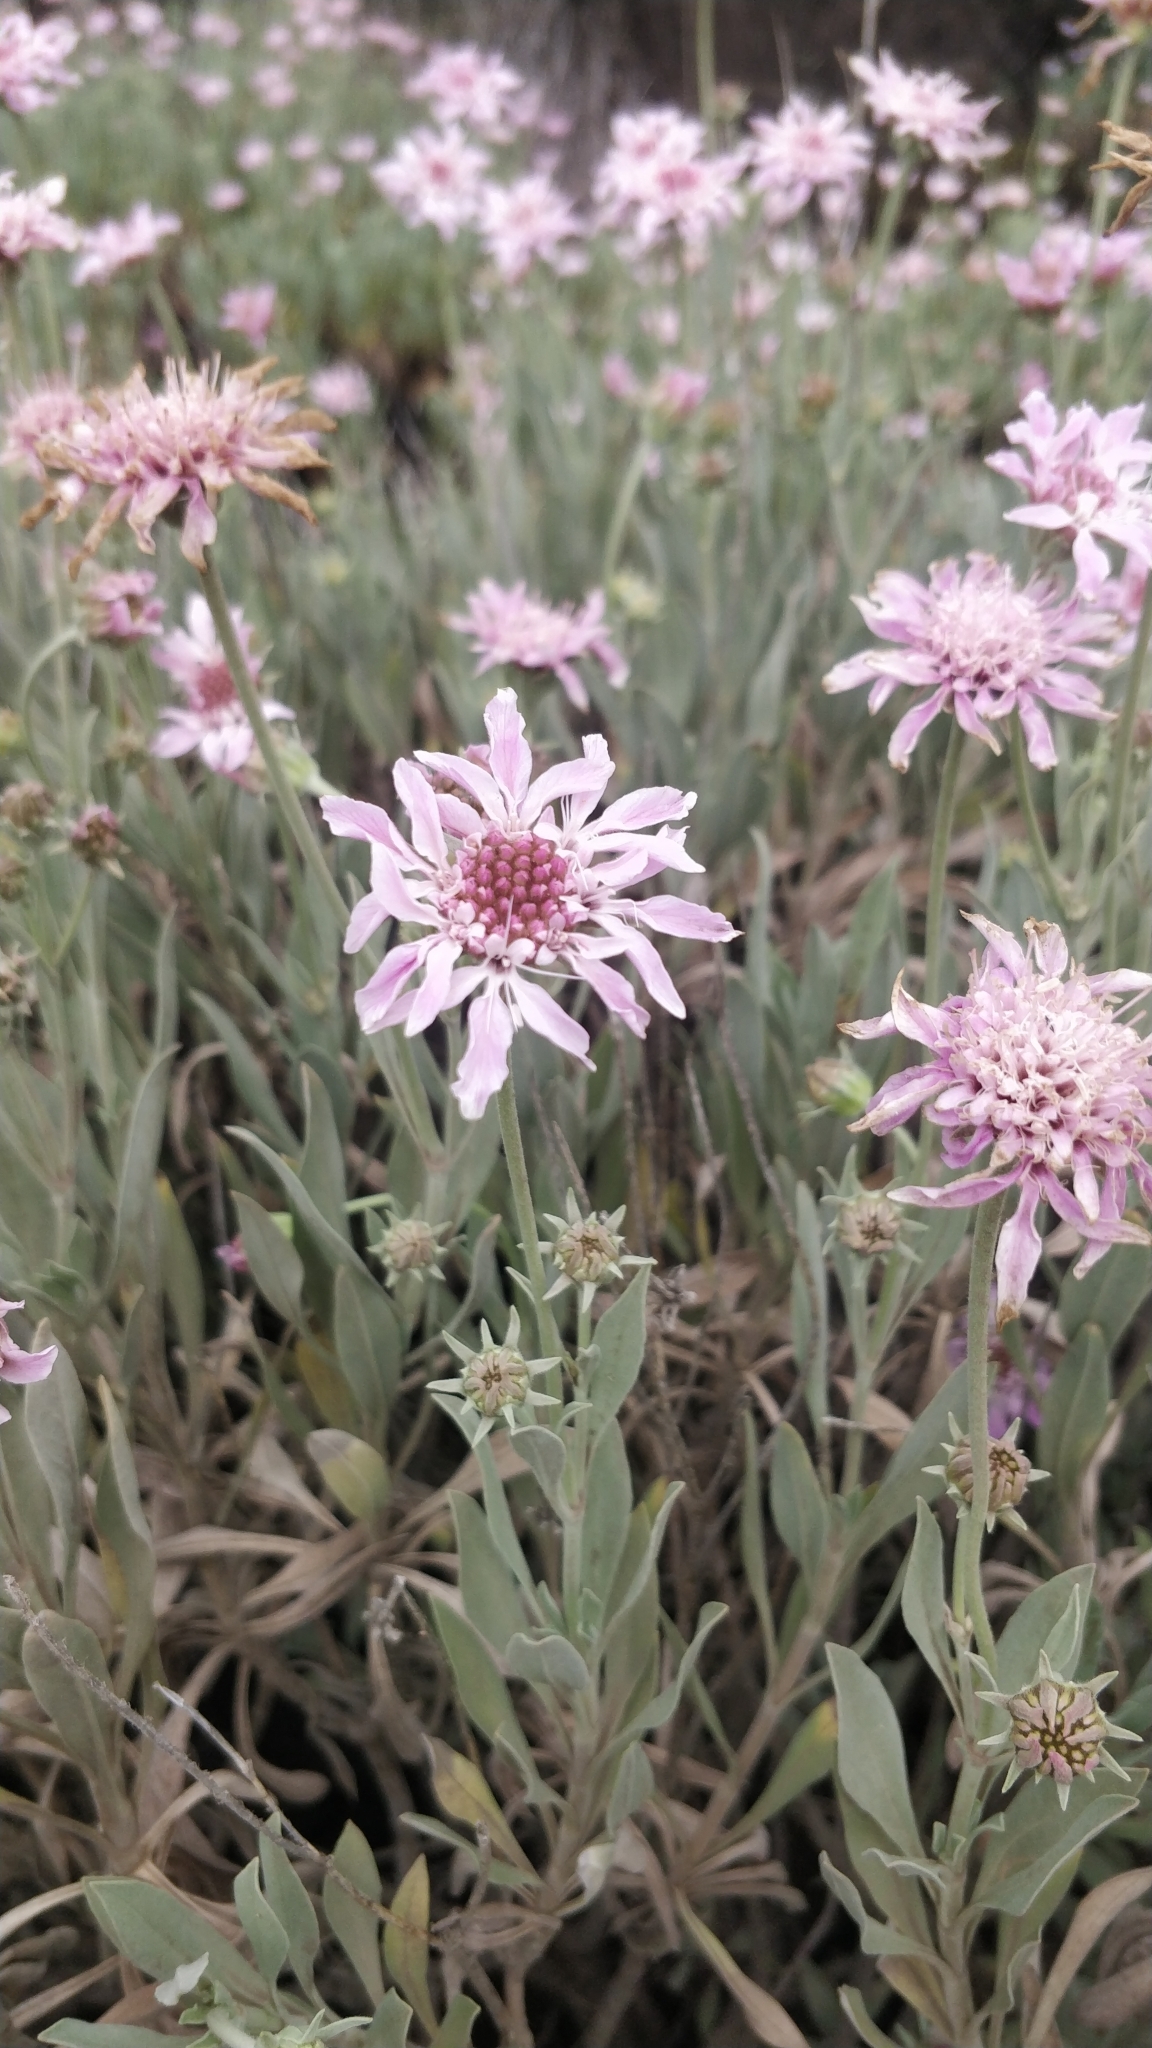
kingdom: Plantae
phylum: Tracheophyta
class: Magnoliopsida
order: Dipsacales
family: Caprifoliaceae
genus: Pterocephalus
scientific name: Pterocephalus lasiospermus
